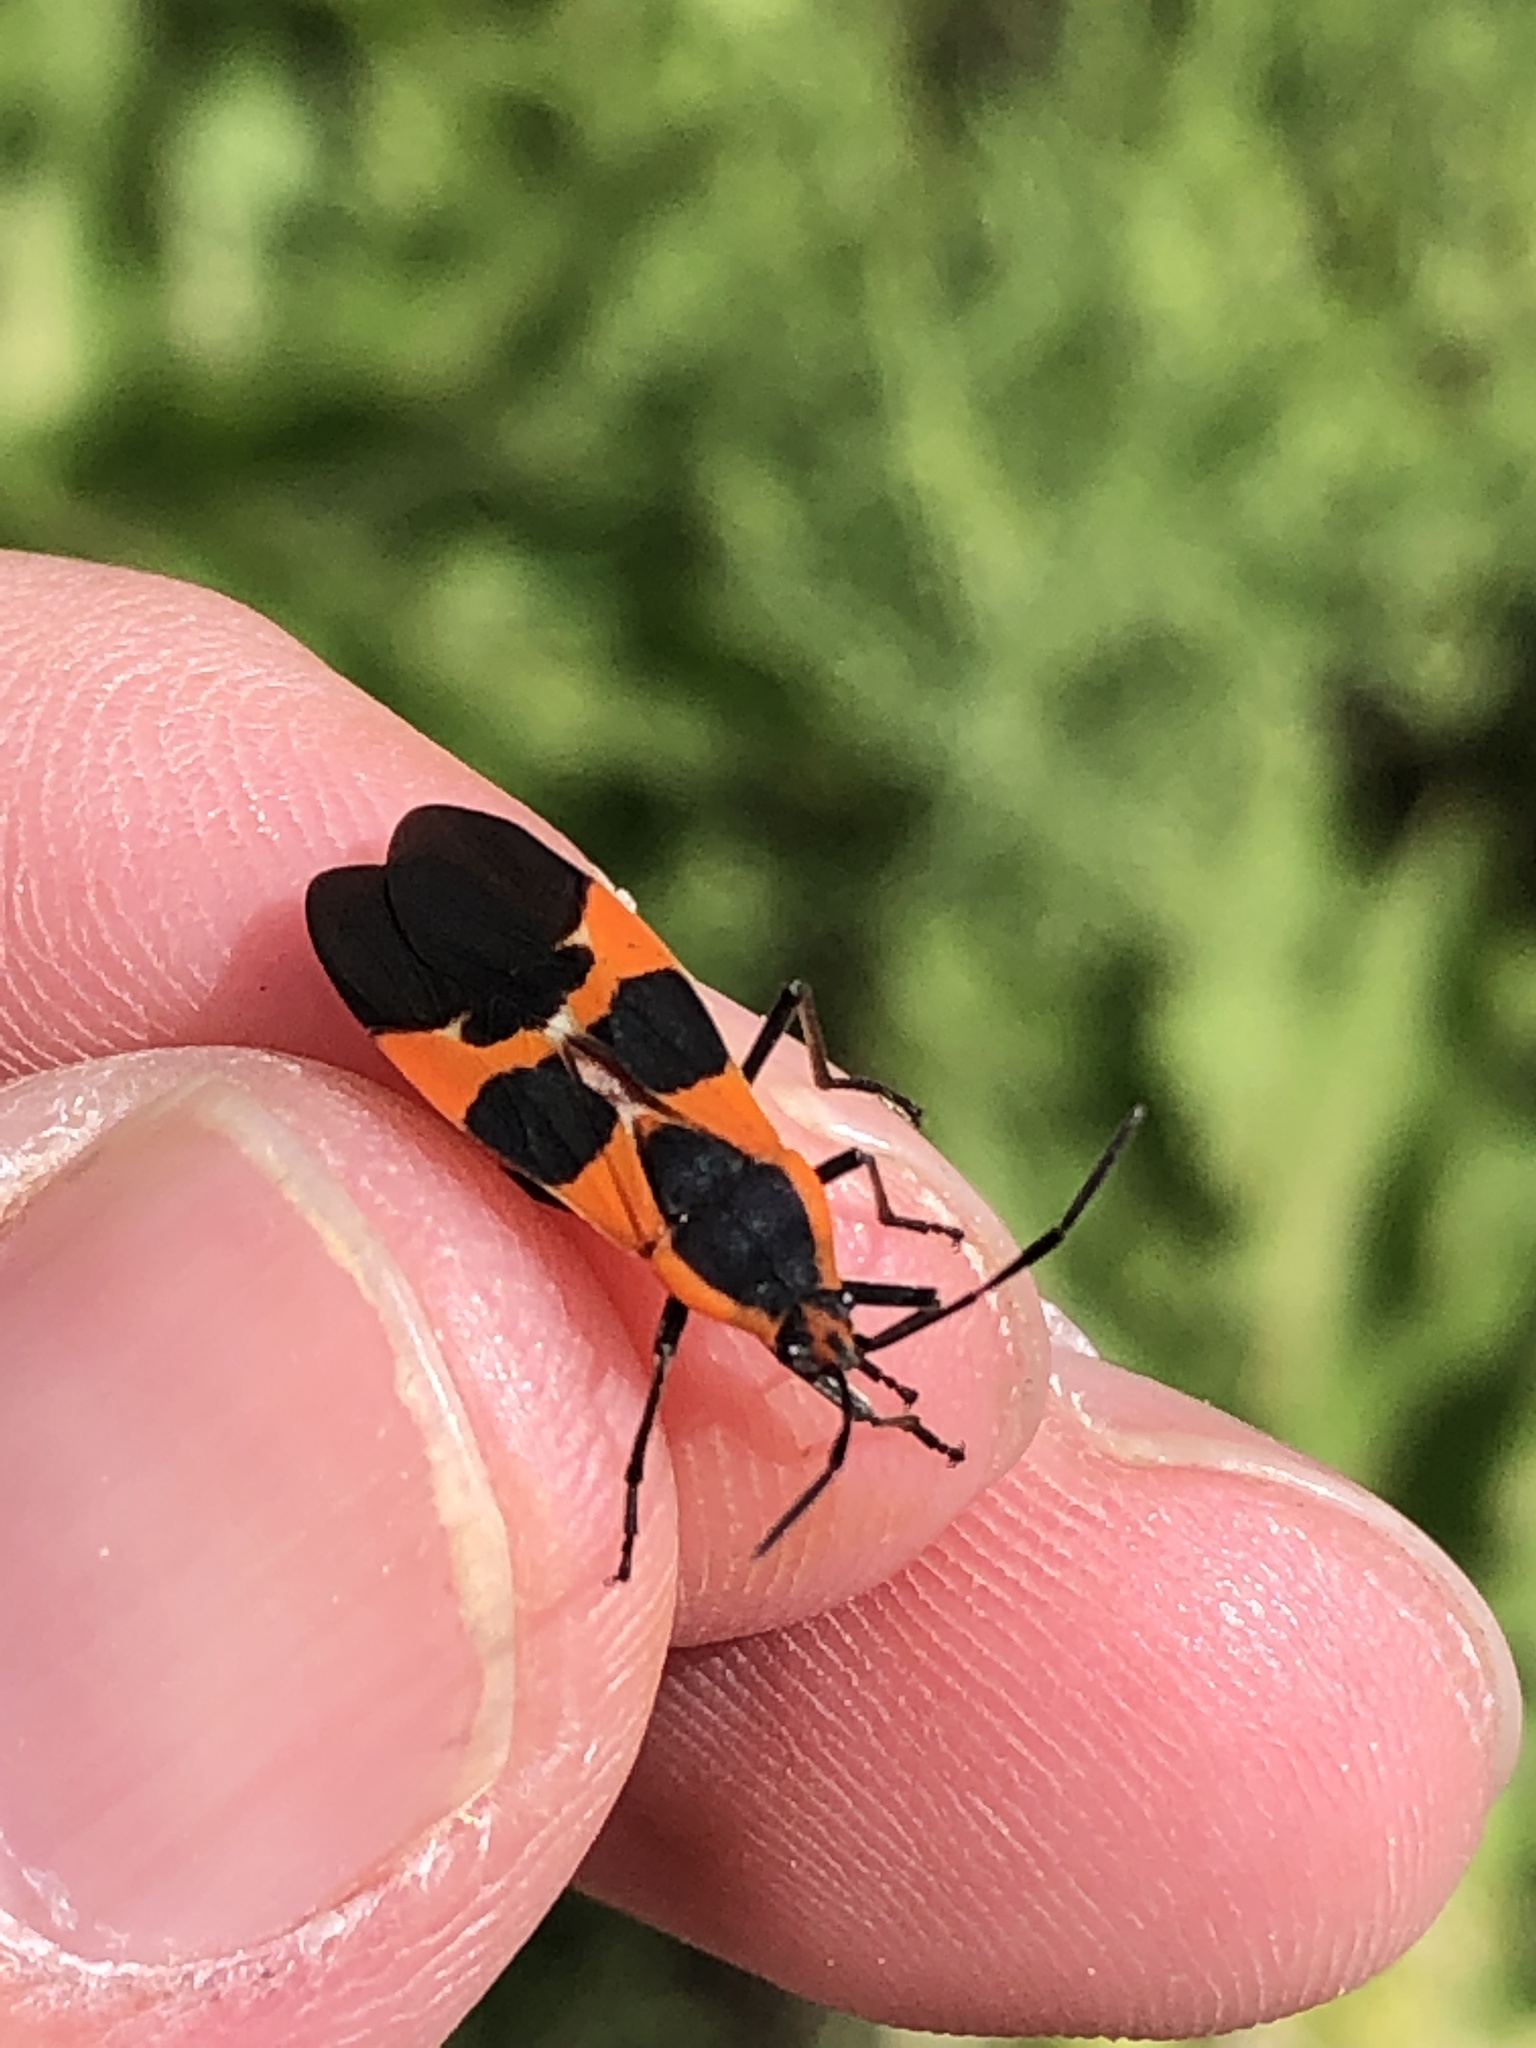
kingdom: Animalia
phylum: Arthropoda
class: Insecta
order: Hemiptera
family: Lygaeidae
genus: Oncopeltus
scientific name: Oncopeltus fasciatus
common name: Large milkweed bug
